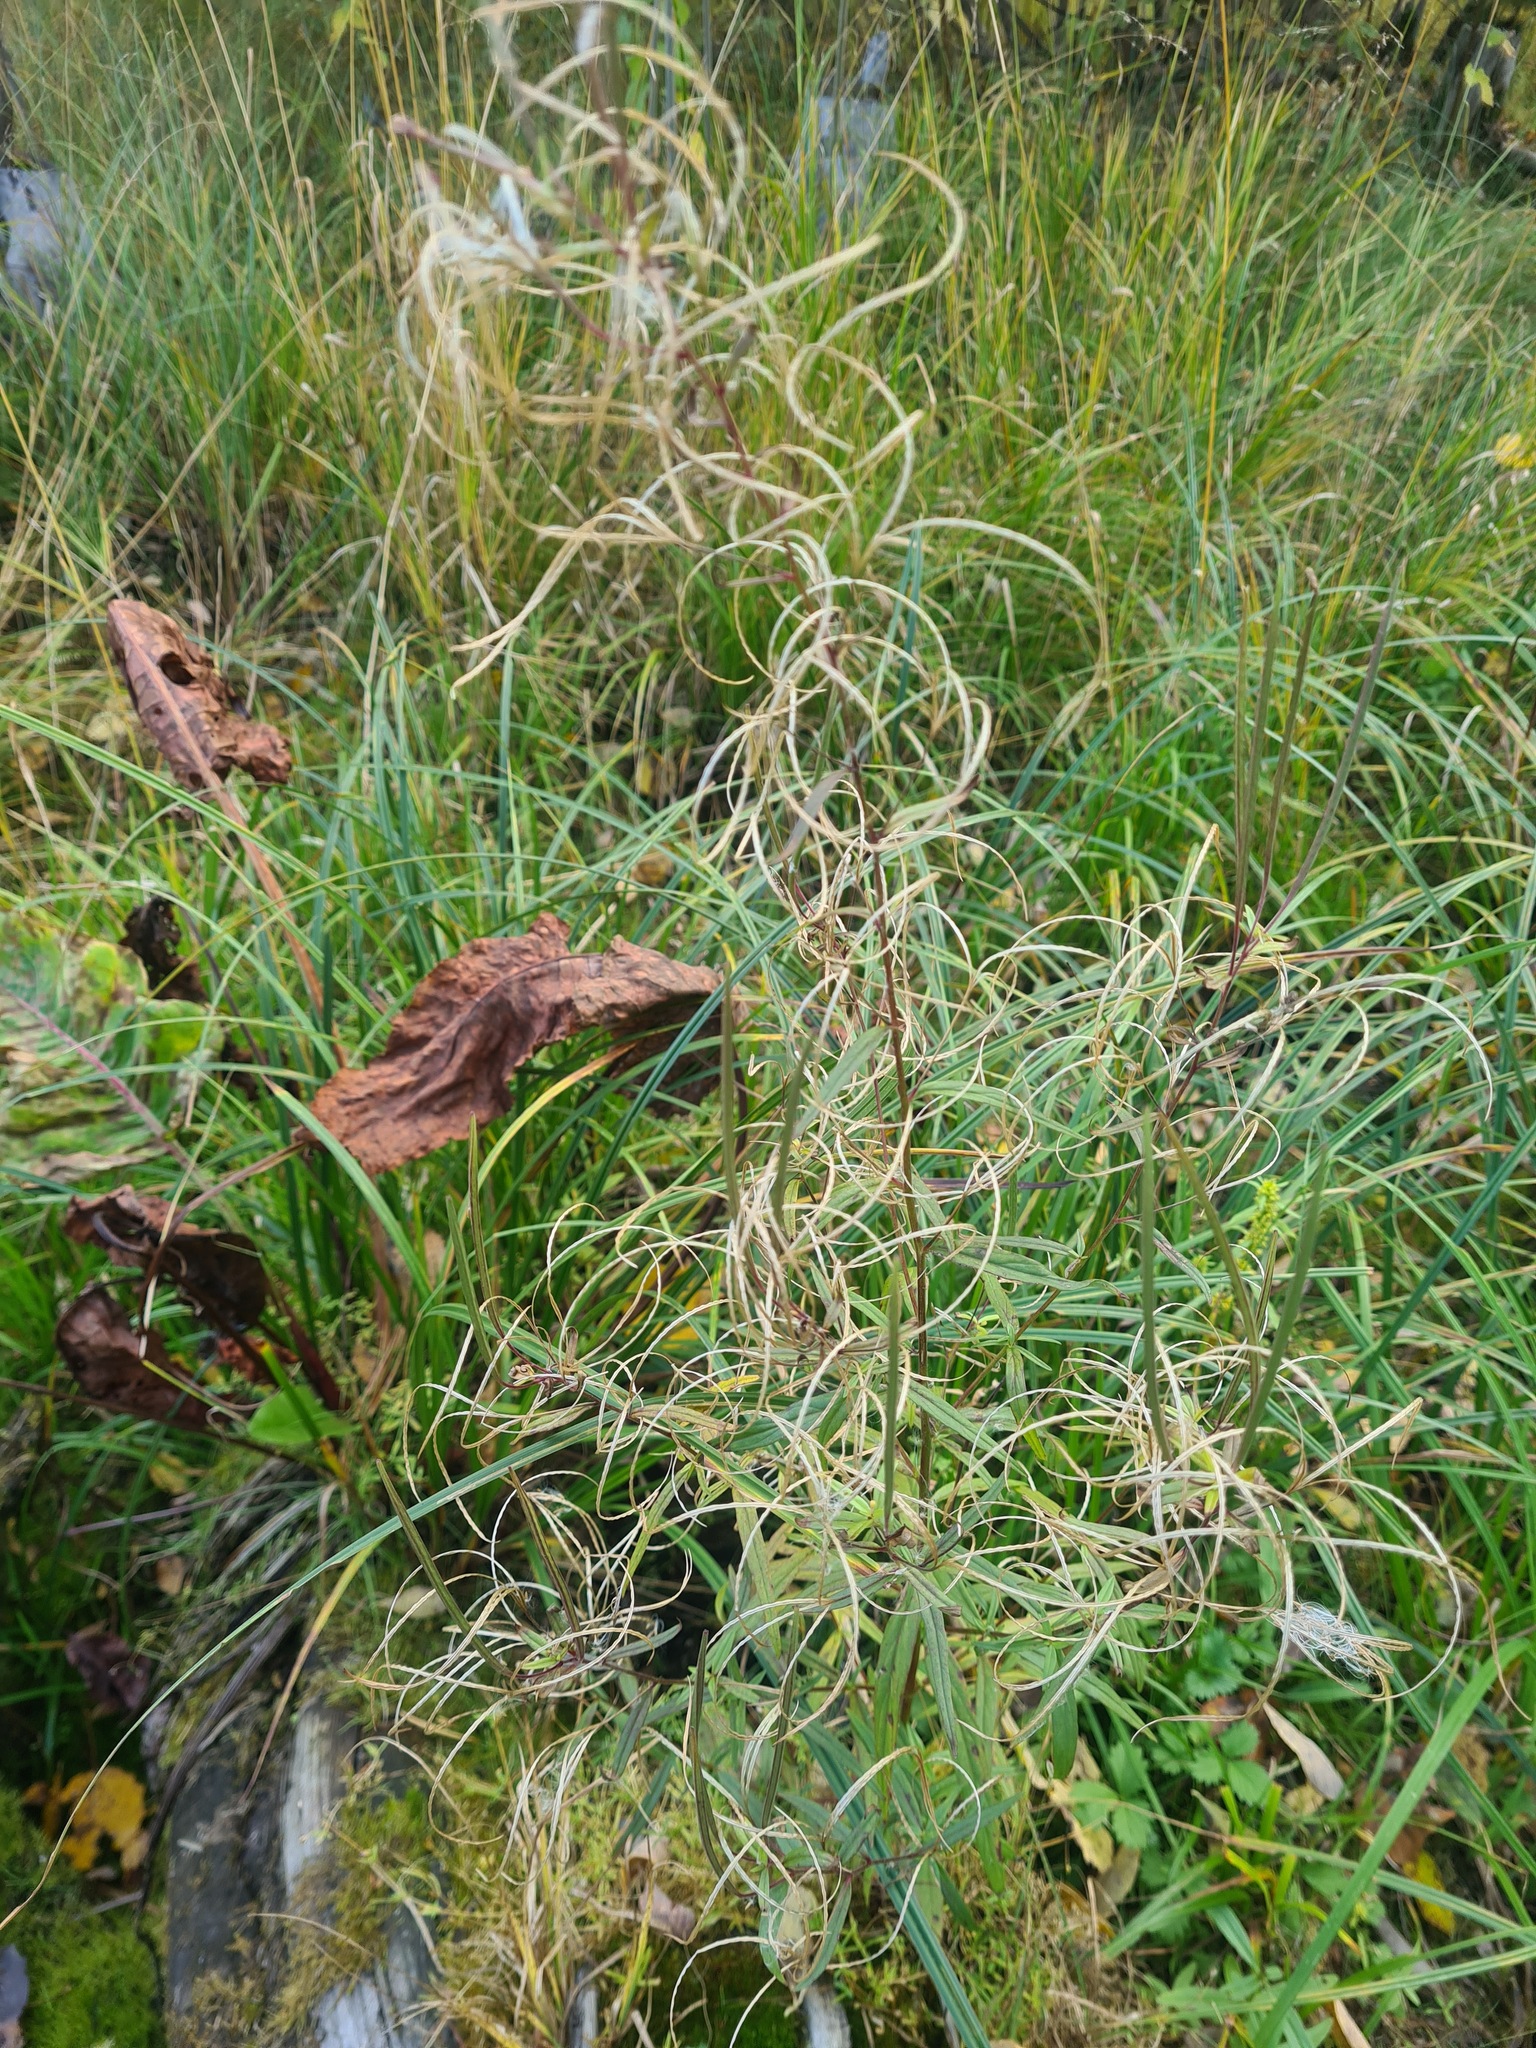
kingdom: Plantae
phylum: Tracheophyta
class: Magnoliopsida
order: Myrtales
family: Onagraceae
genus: Epilobium
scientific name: Epilobium palustre
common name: Marsh willowherb
